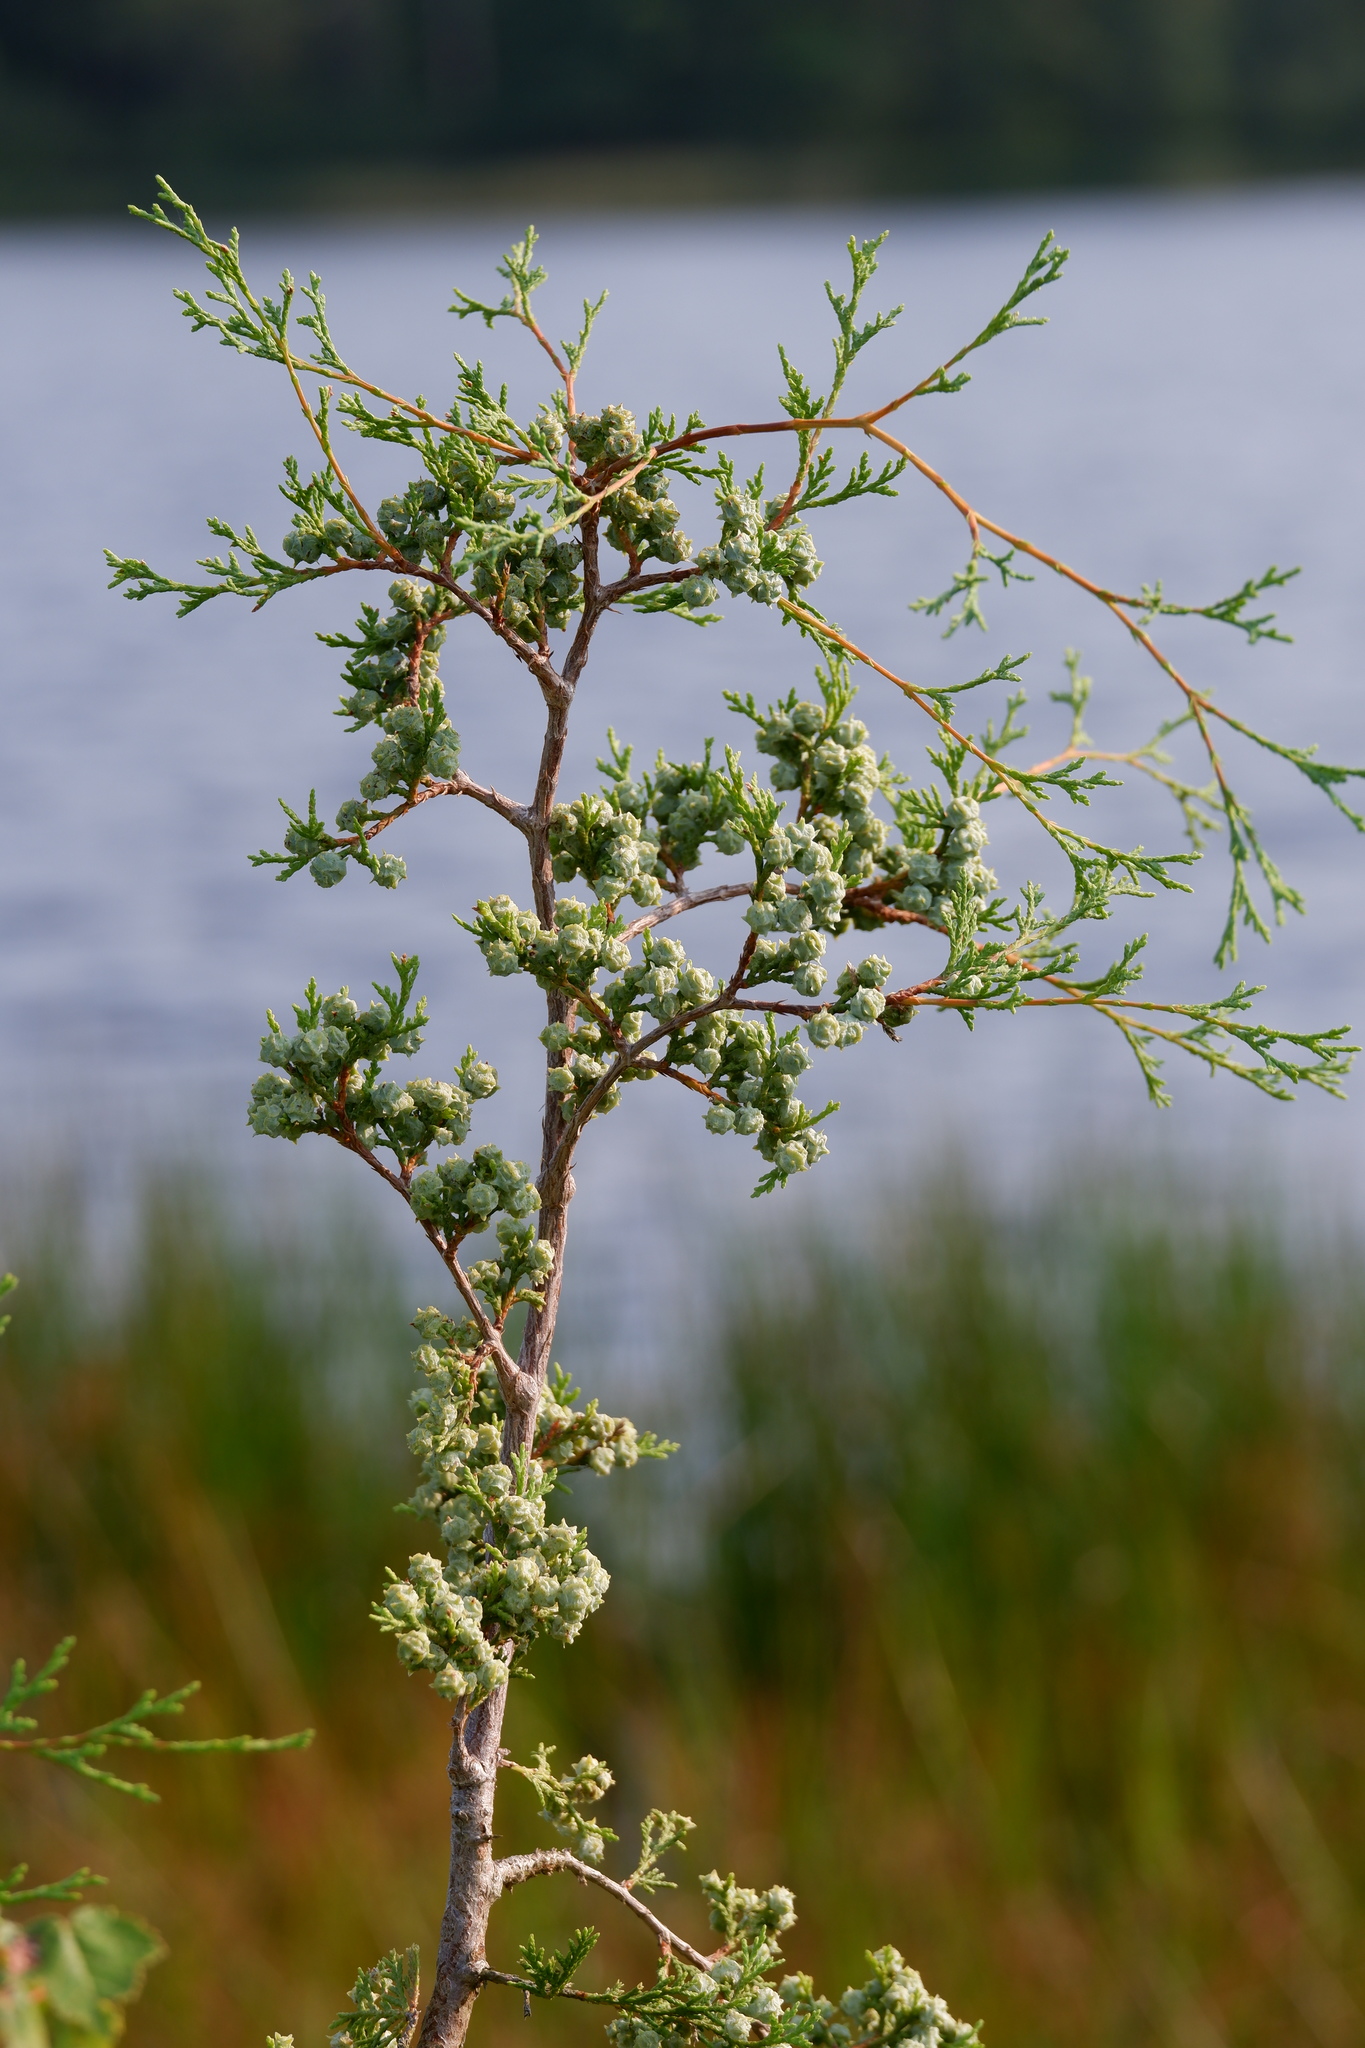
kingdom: Plantae
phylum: Tracheophyta
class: Pinopsida
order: Pinales
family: Cupressaceae
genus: Chamaecyparis
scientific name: Chamaecyparis thyoides
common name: Atlantic white cedar
